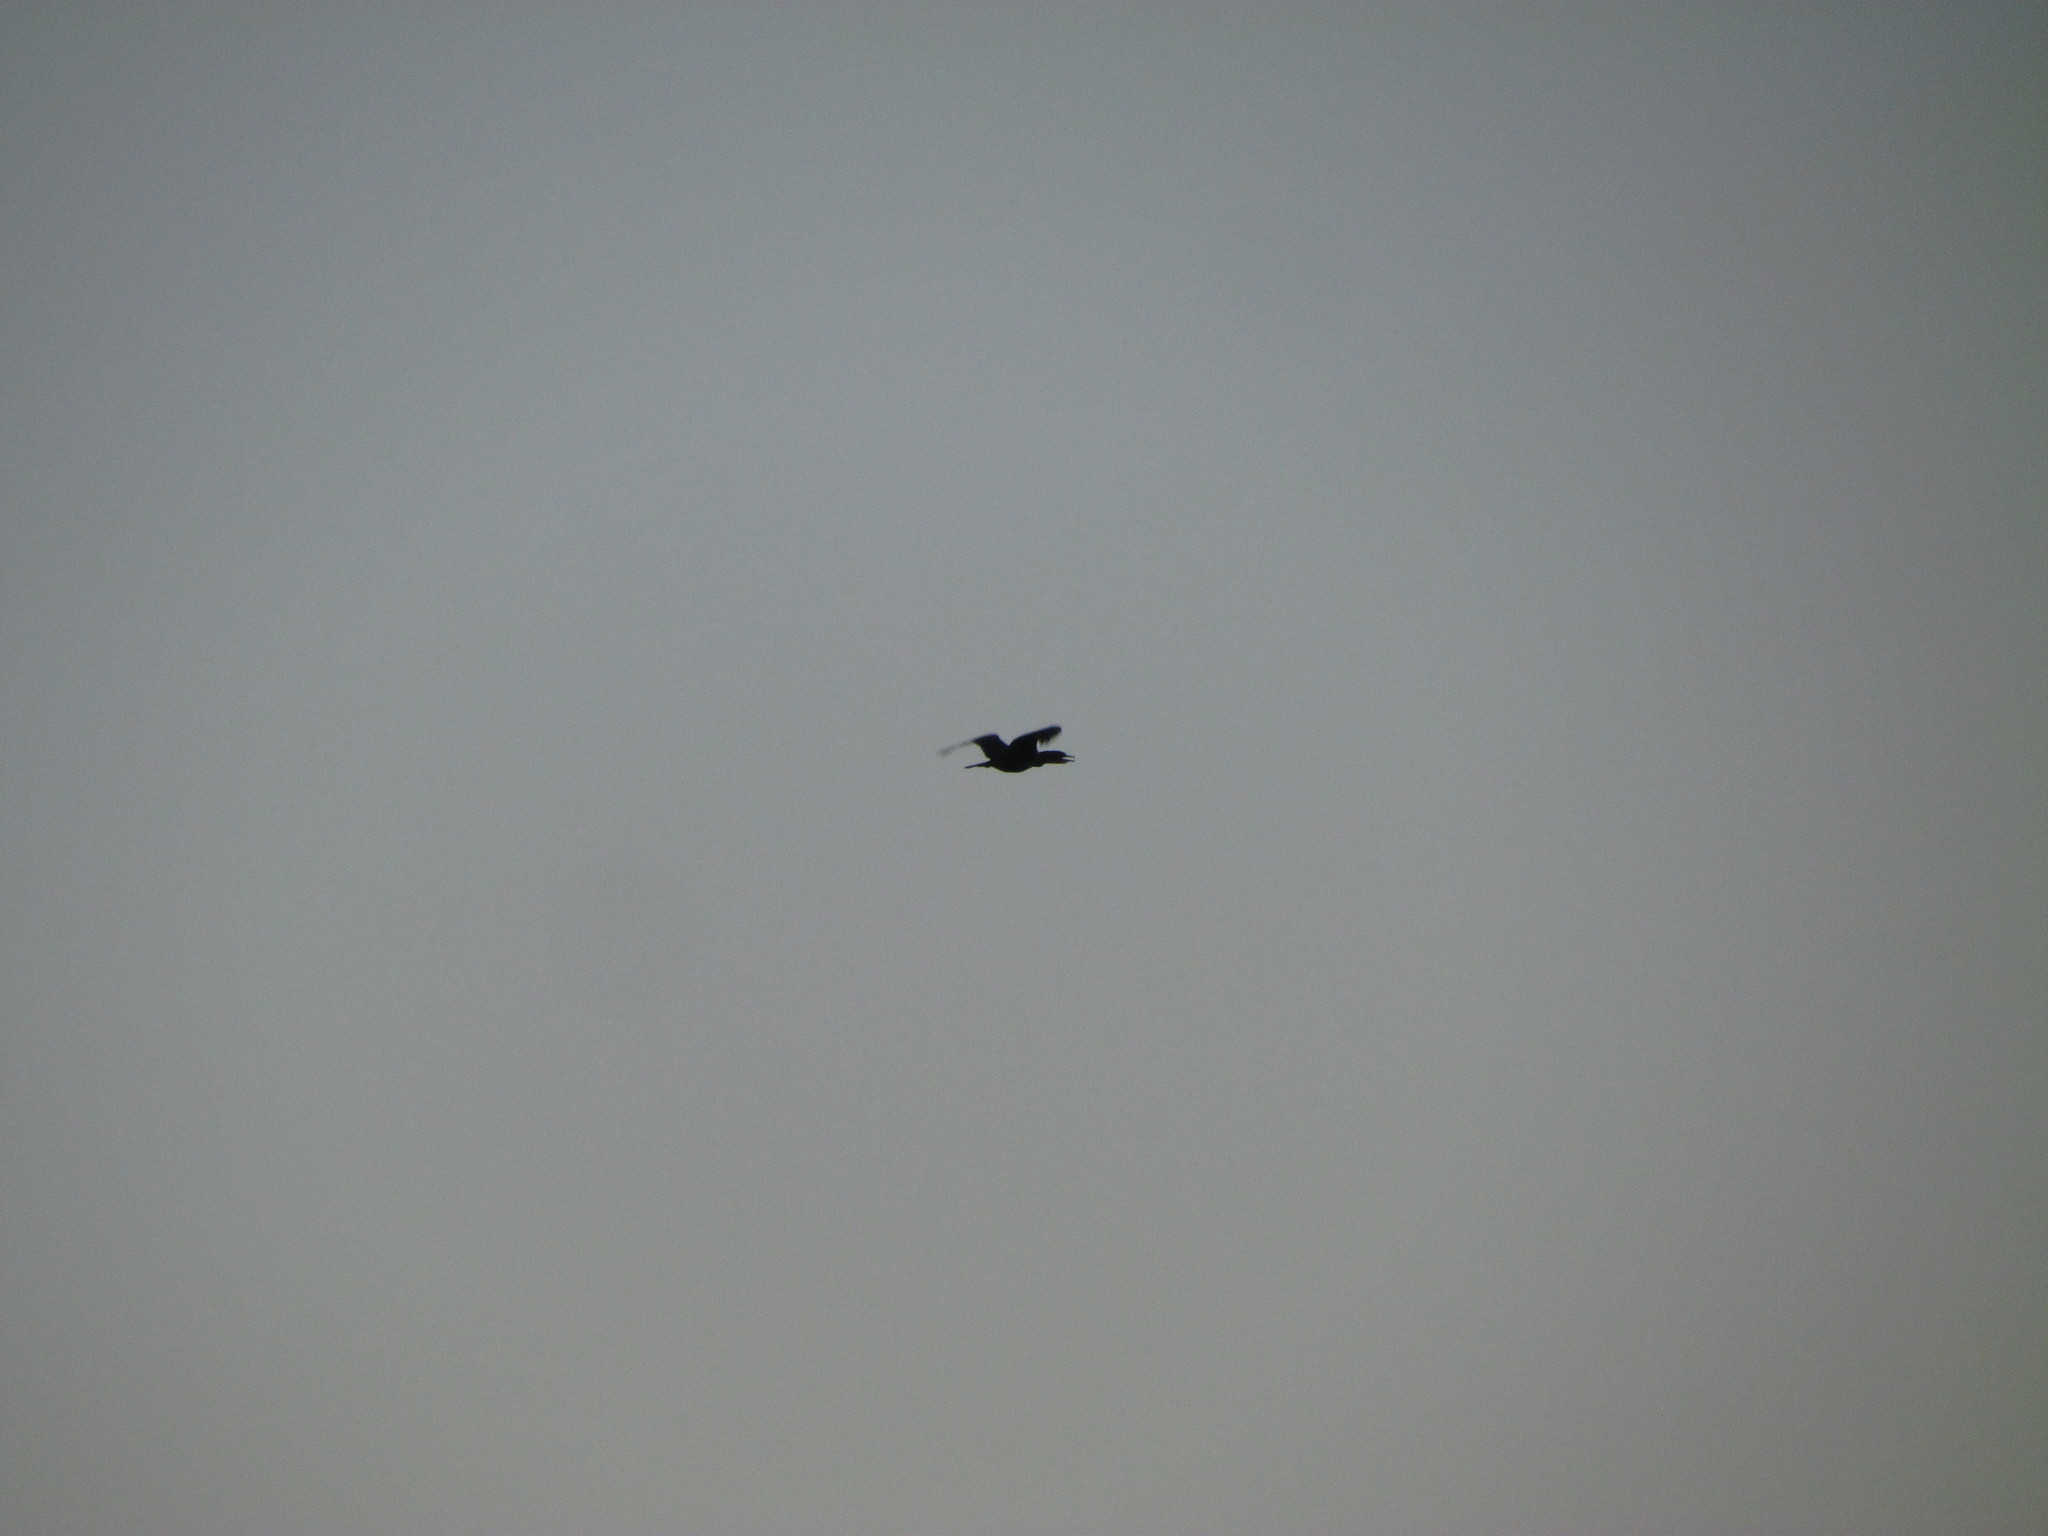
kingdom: Animalia
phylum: Chordata
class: Aves
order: Suliformes
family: Phalacrocoracidae
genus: Phalacrocorax
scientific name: Phalacrocorax brasilianus
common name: Neotropic cormorant
